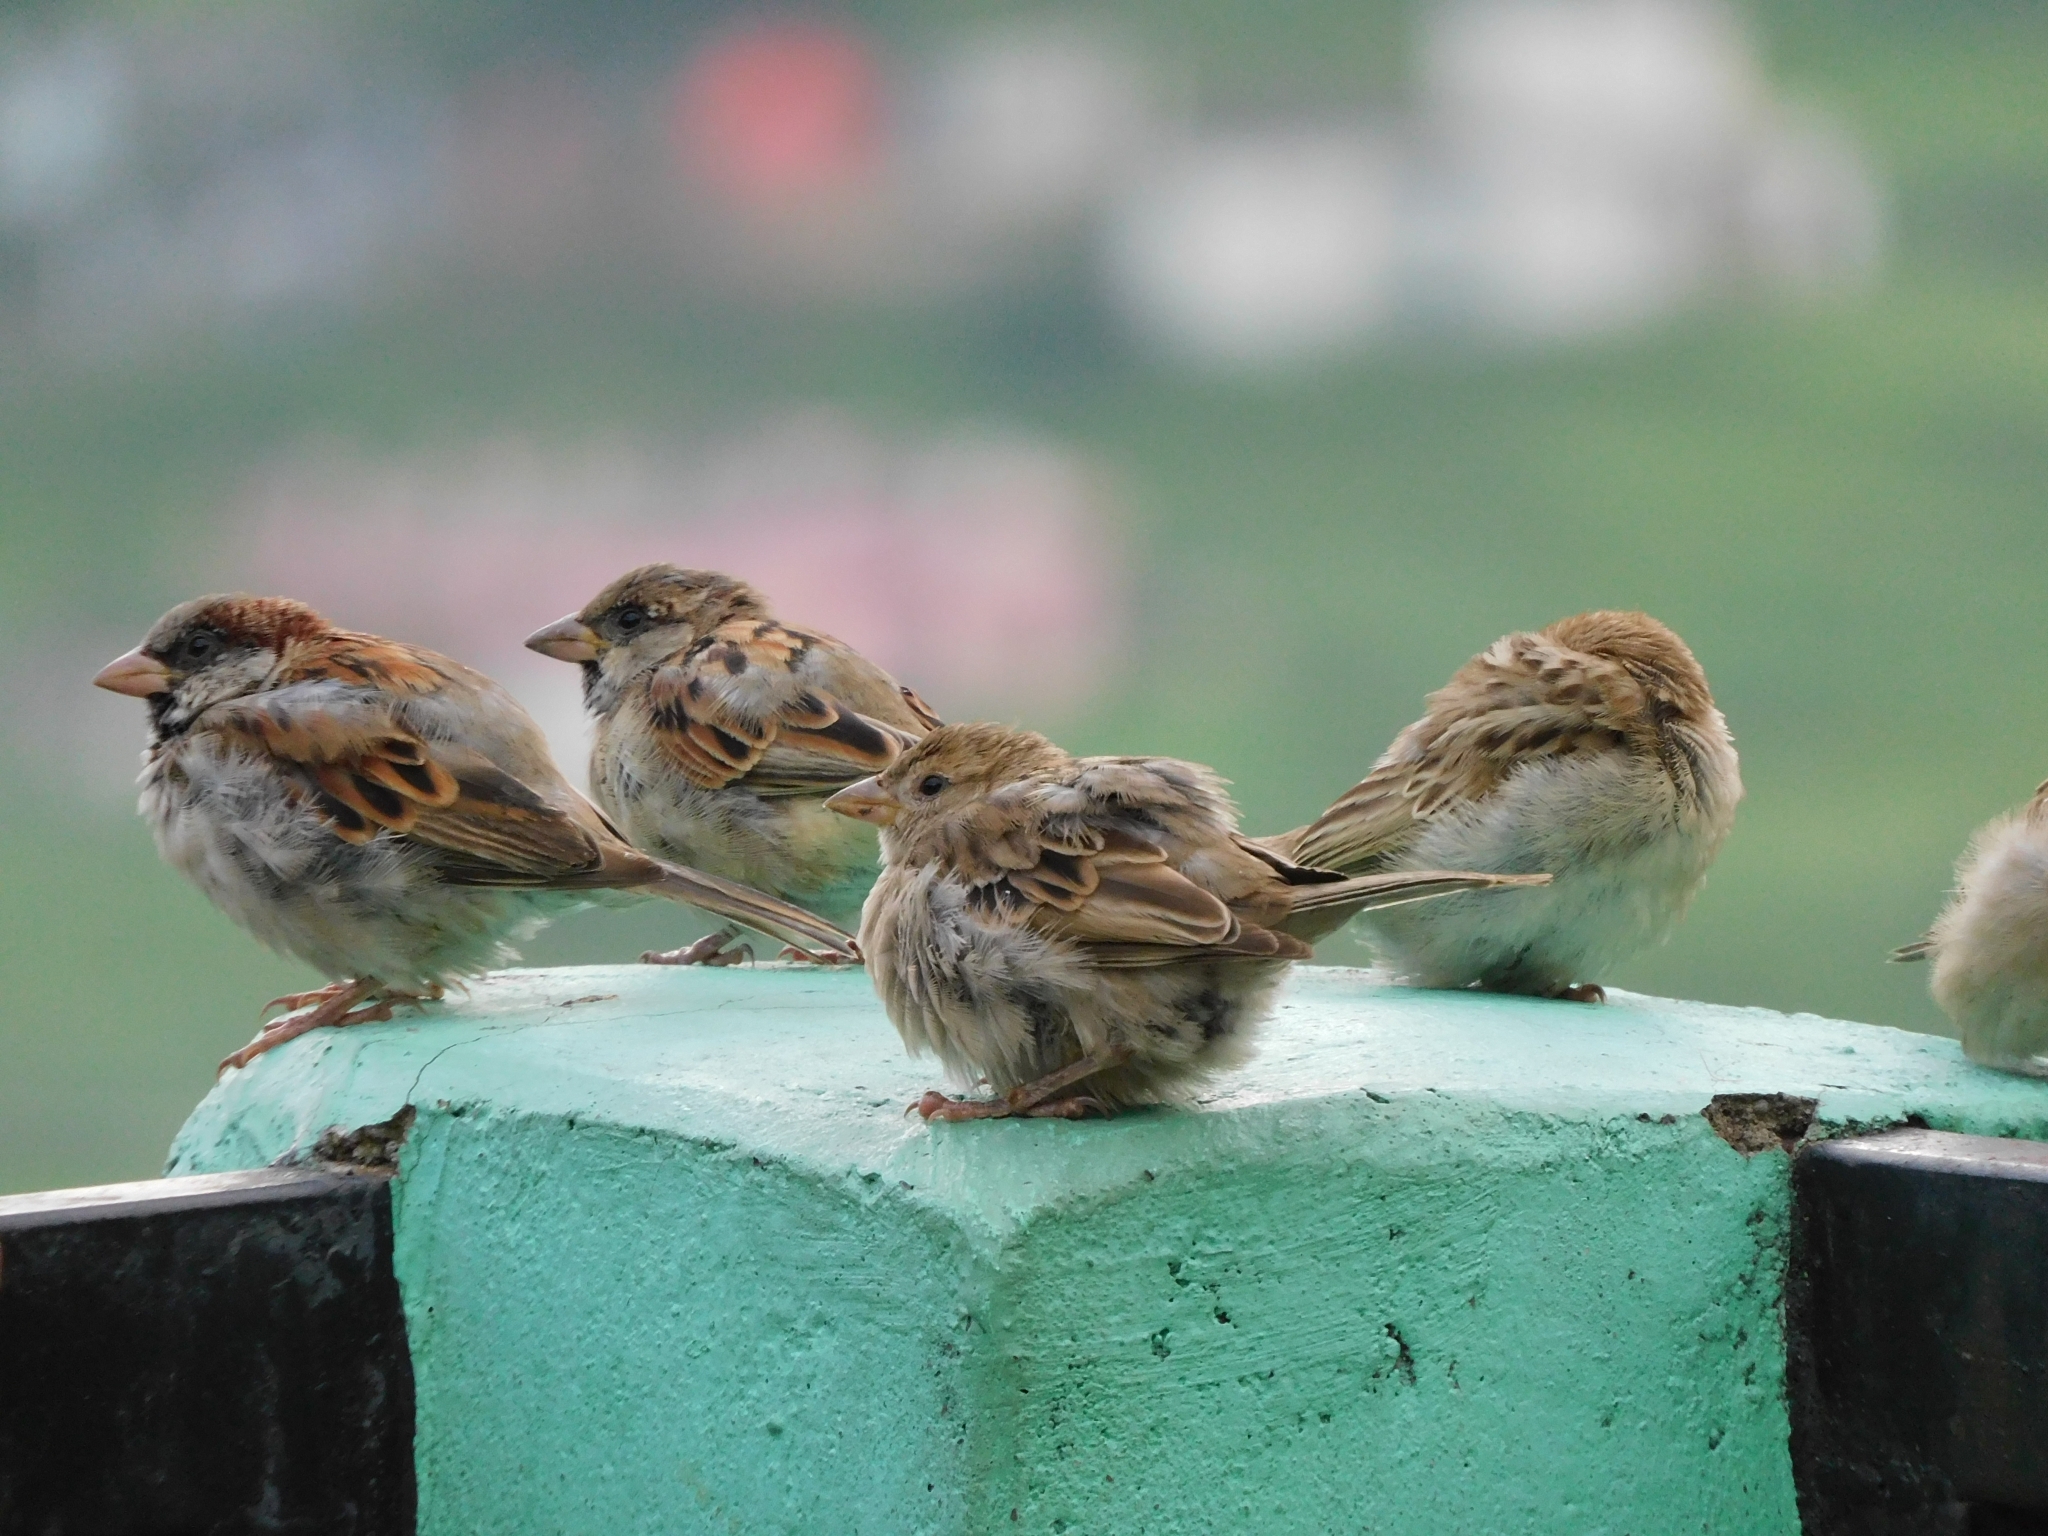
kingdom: Animalia
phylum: Chordata
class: Aves
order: Passeriformes
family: Passeridae
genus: Passer
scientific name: Passer domesticus
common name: House sparrow
